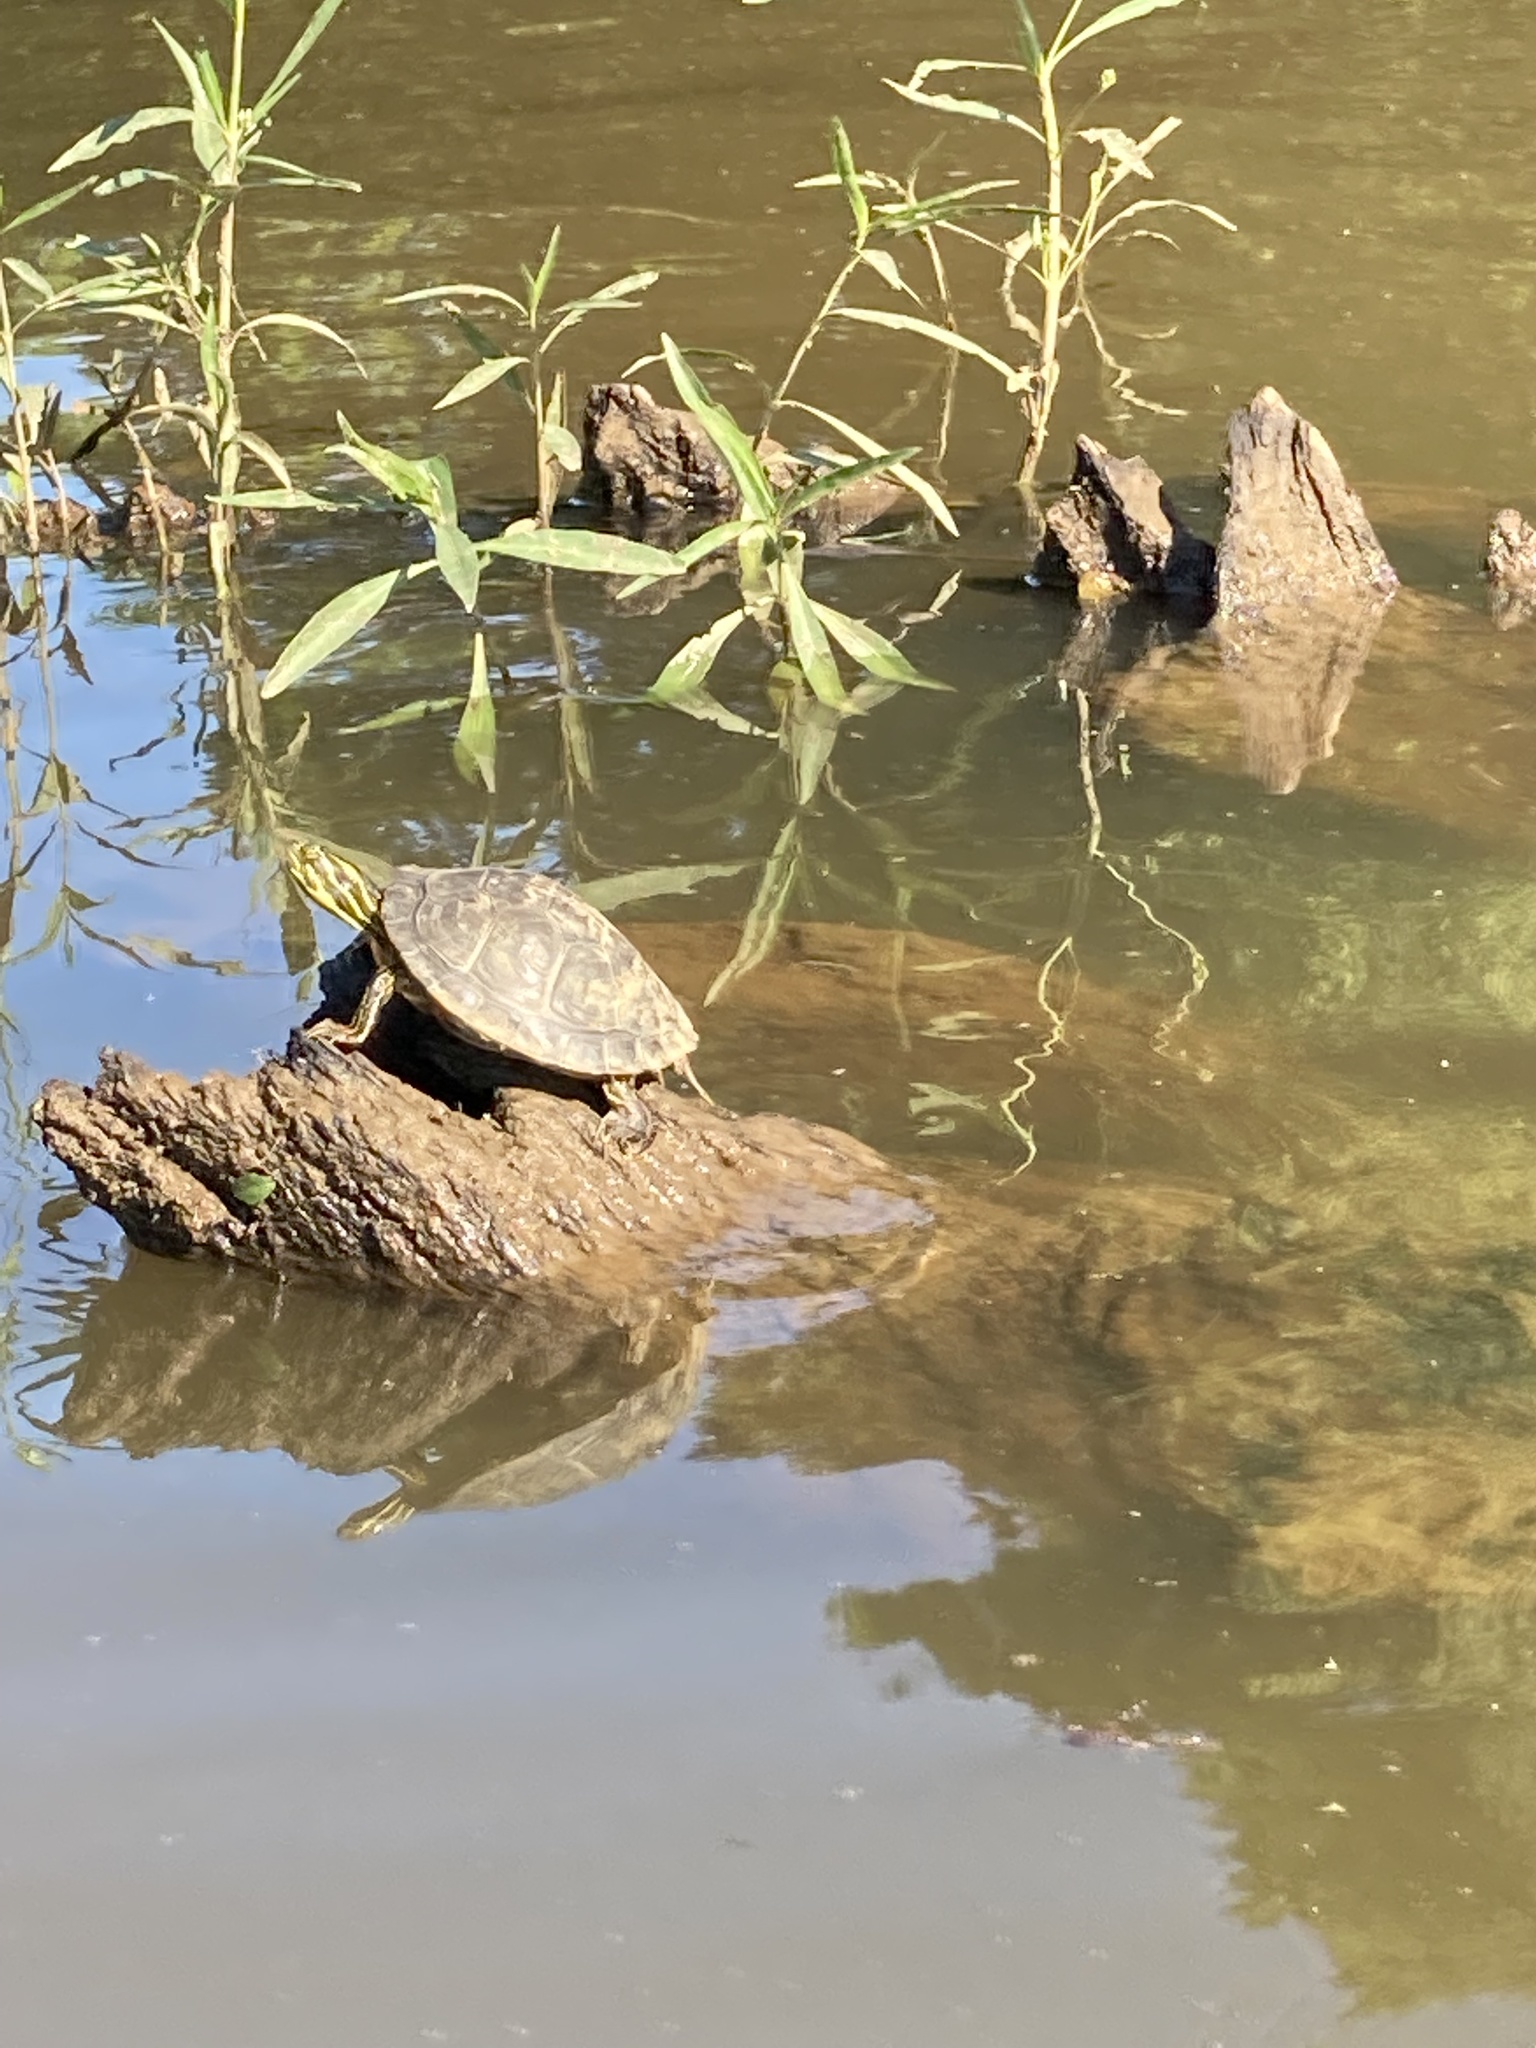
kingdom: Animalia
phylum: Chordata
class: Testudines
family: Emydidae
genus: Pseudemys
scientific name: Pseudemys concinna
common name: Eastern river cooter
